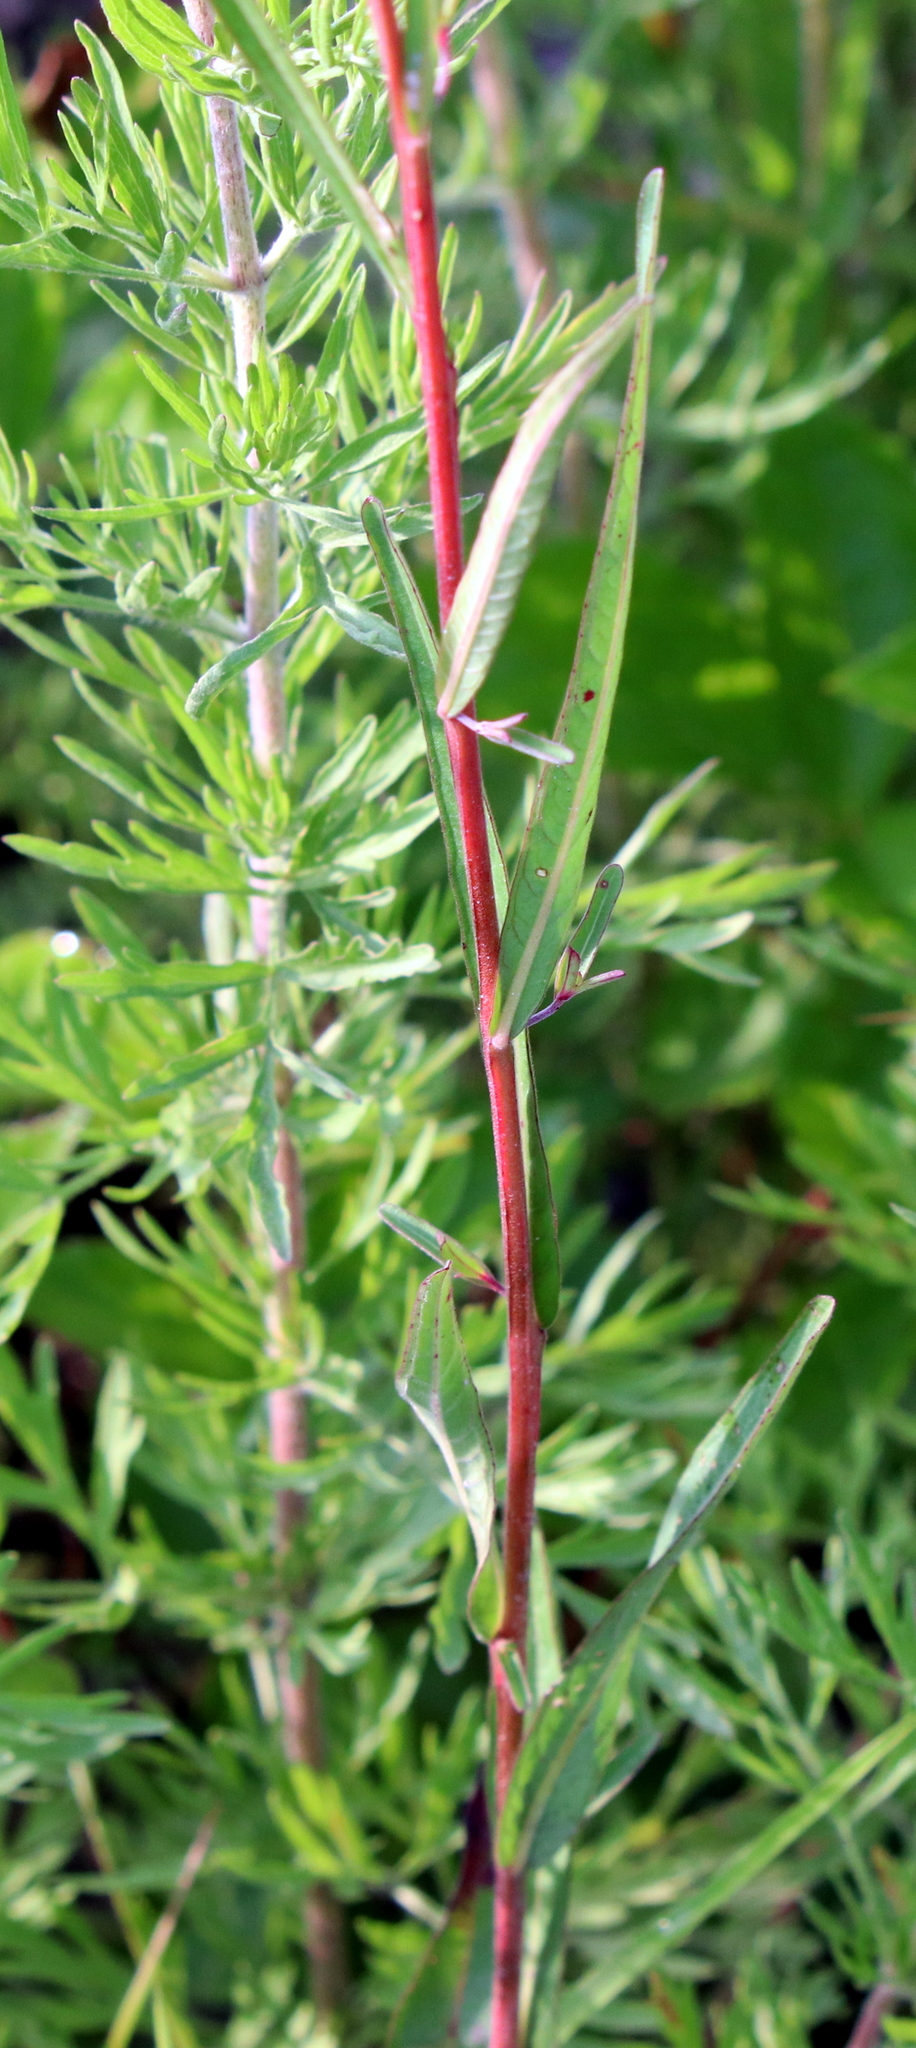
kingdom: Plantae
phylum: Tracheophyta
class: Magnoliopsida
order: Myrtales
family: Onagraceae
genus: Ludwigia
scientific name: Ludwigia maritima
